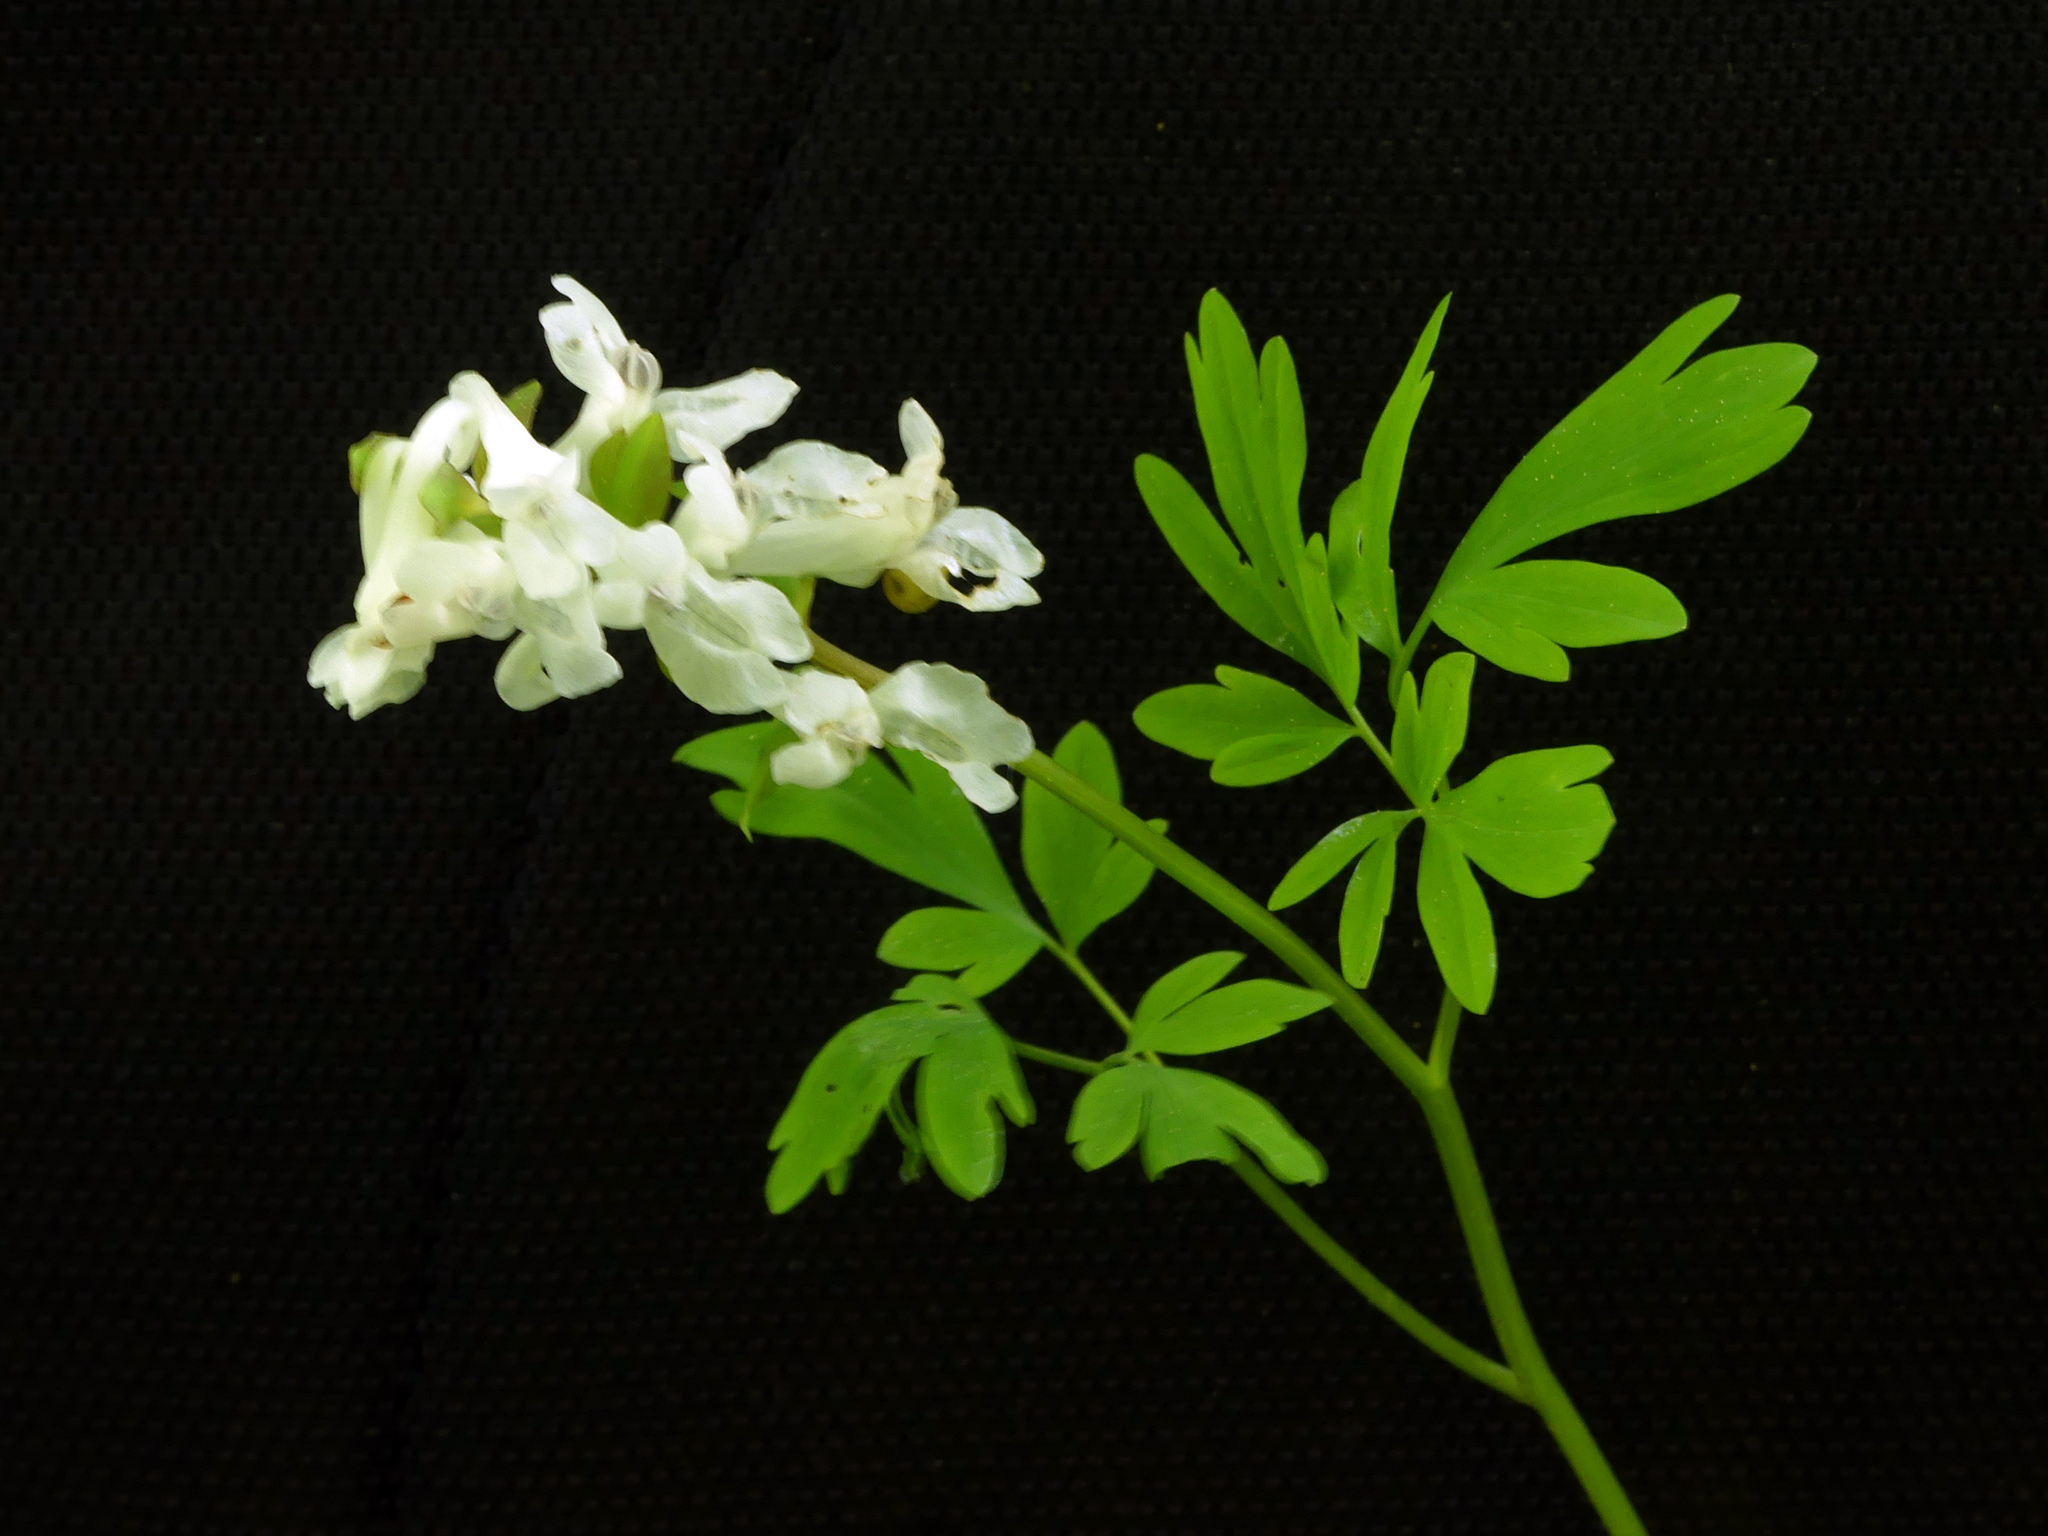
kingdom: Plantae
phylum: Tracheophyta
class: Magnoliopsida
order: Ranunculales
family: Papaveraceae
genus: Corydalis
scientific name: Corydalis cava
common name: Hollowroot
